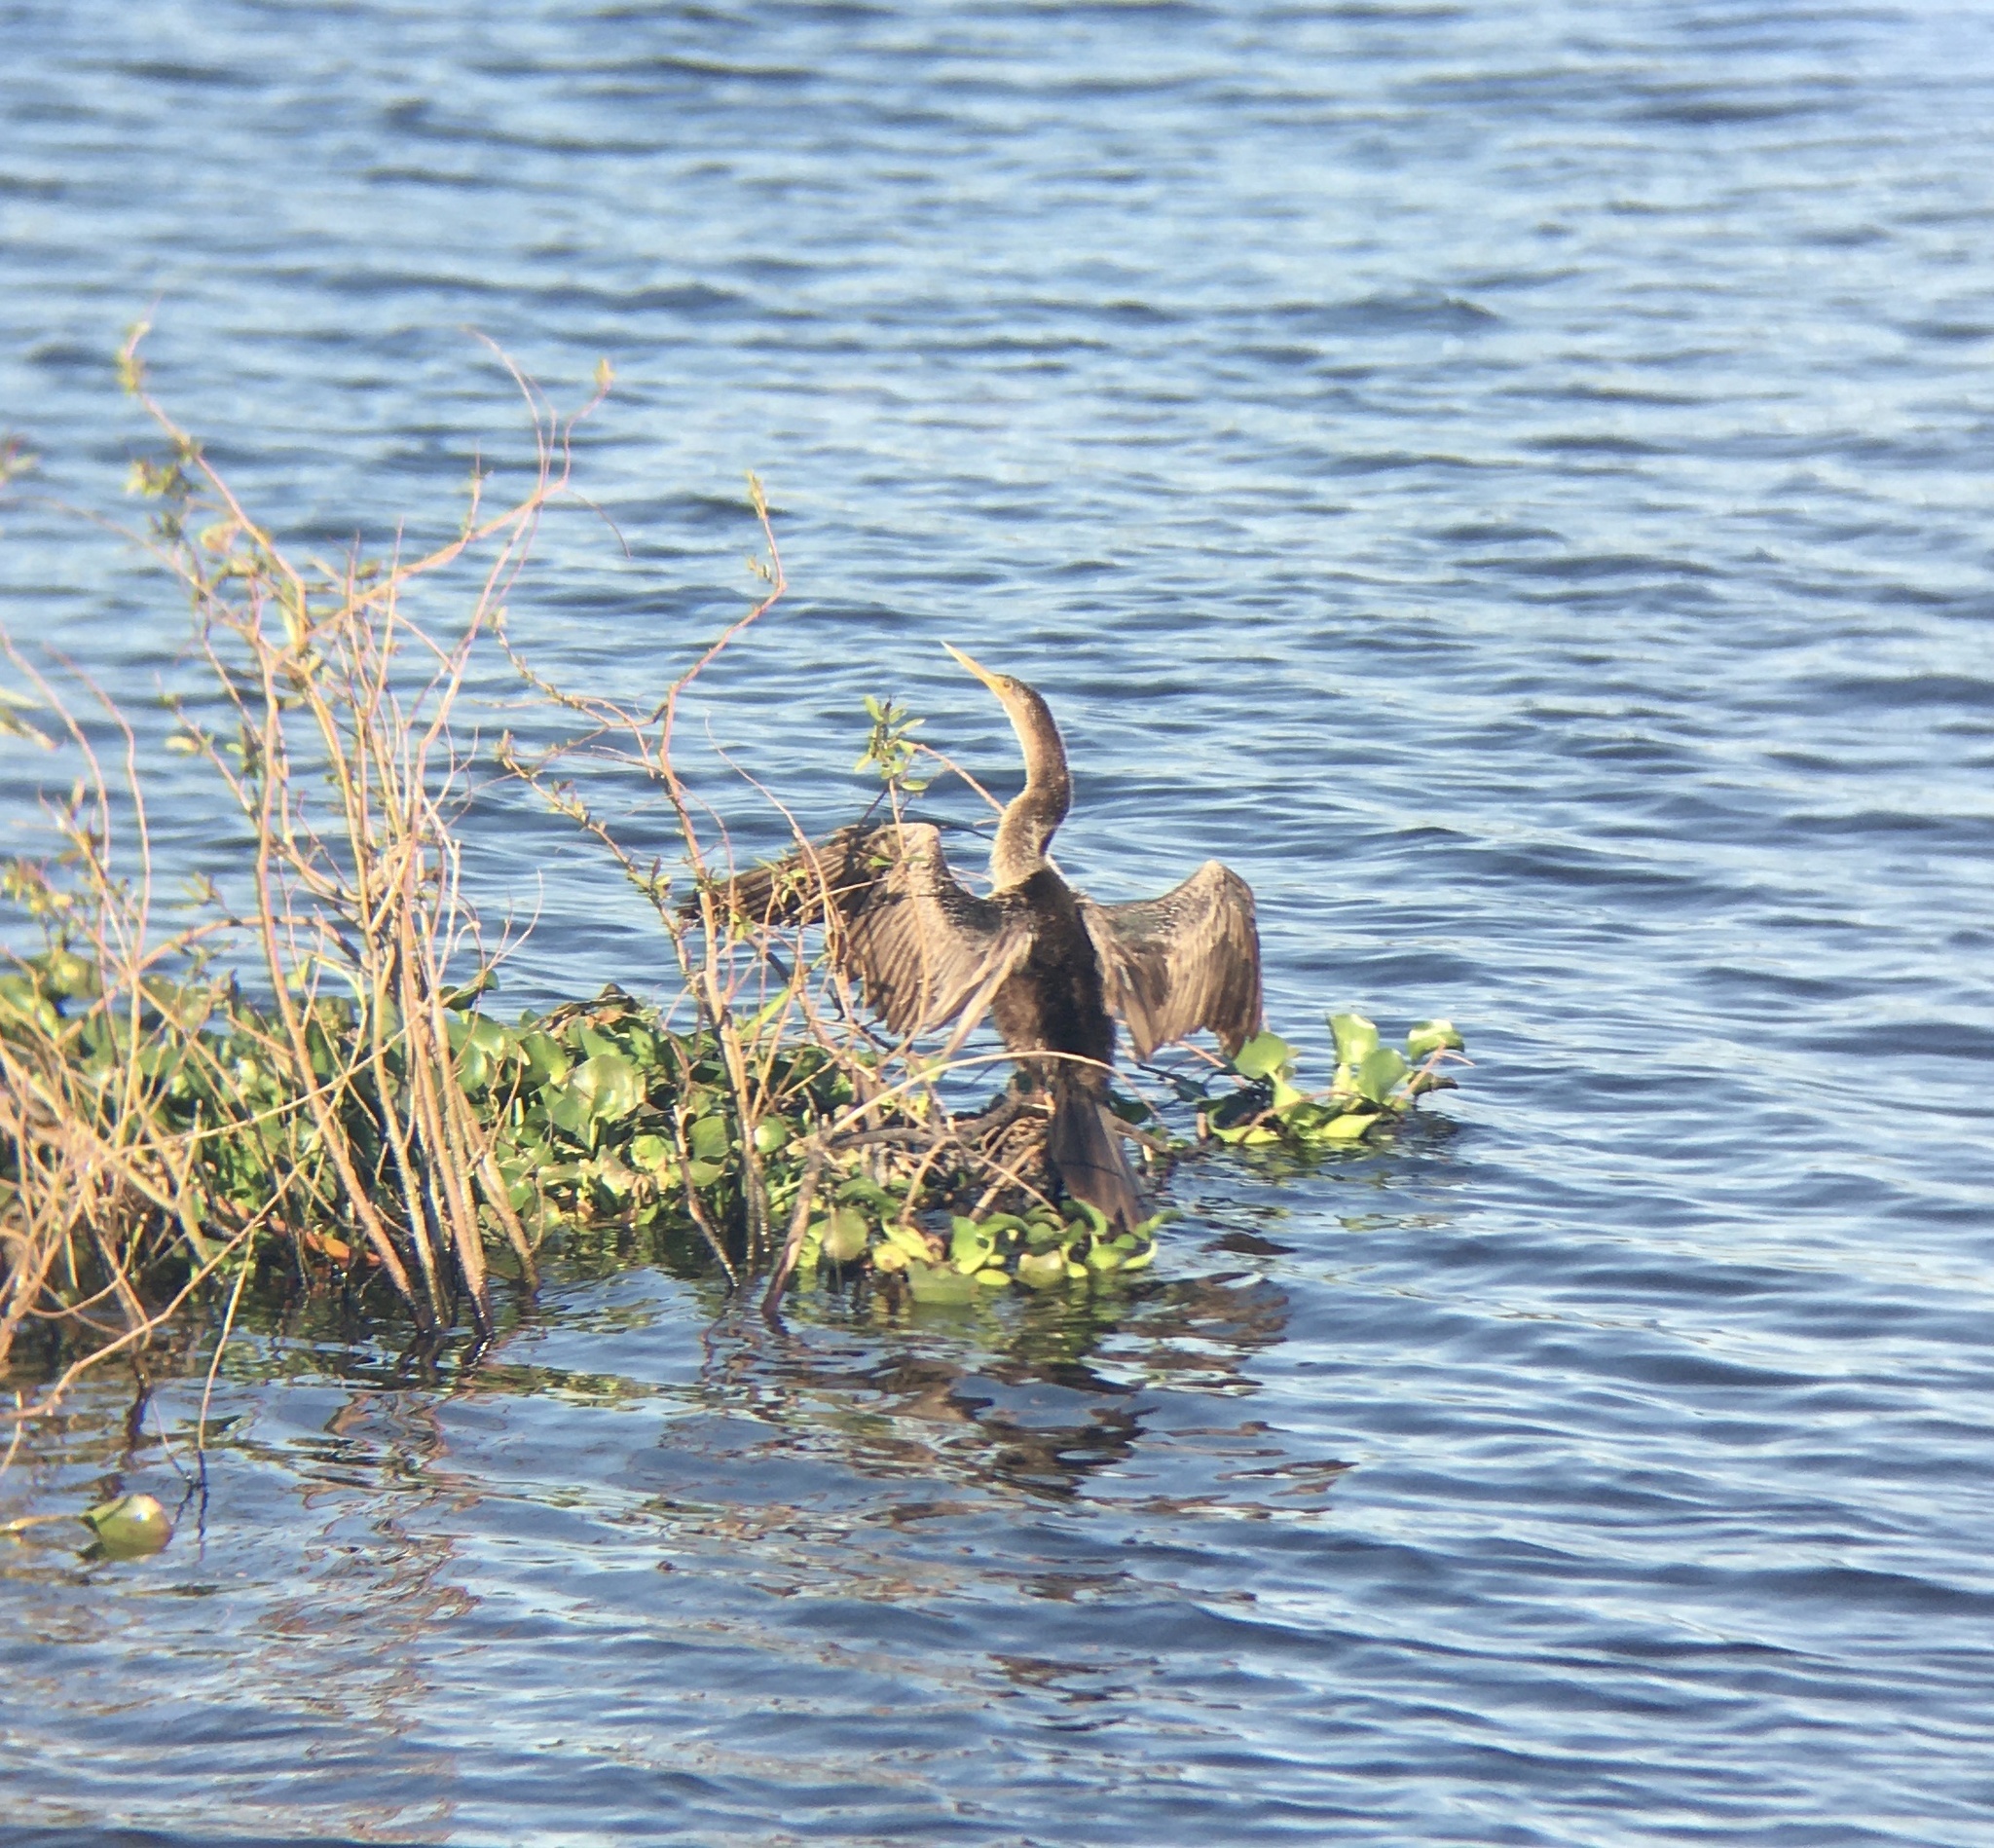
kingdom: Animalia
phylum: Chordata
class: Aves
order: Suliformes
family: Anhingidae
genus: Anhinga
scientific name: Anhinga anhinga
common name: Anhinga
